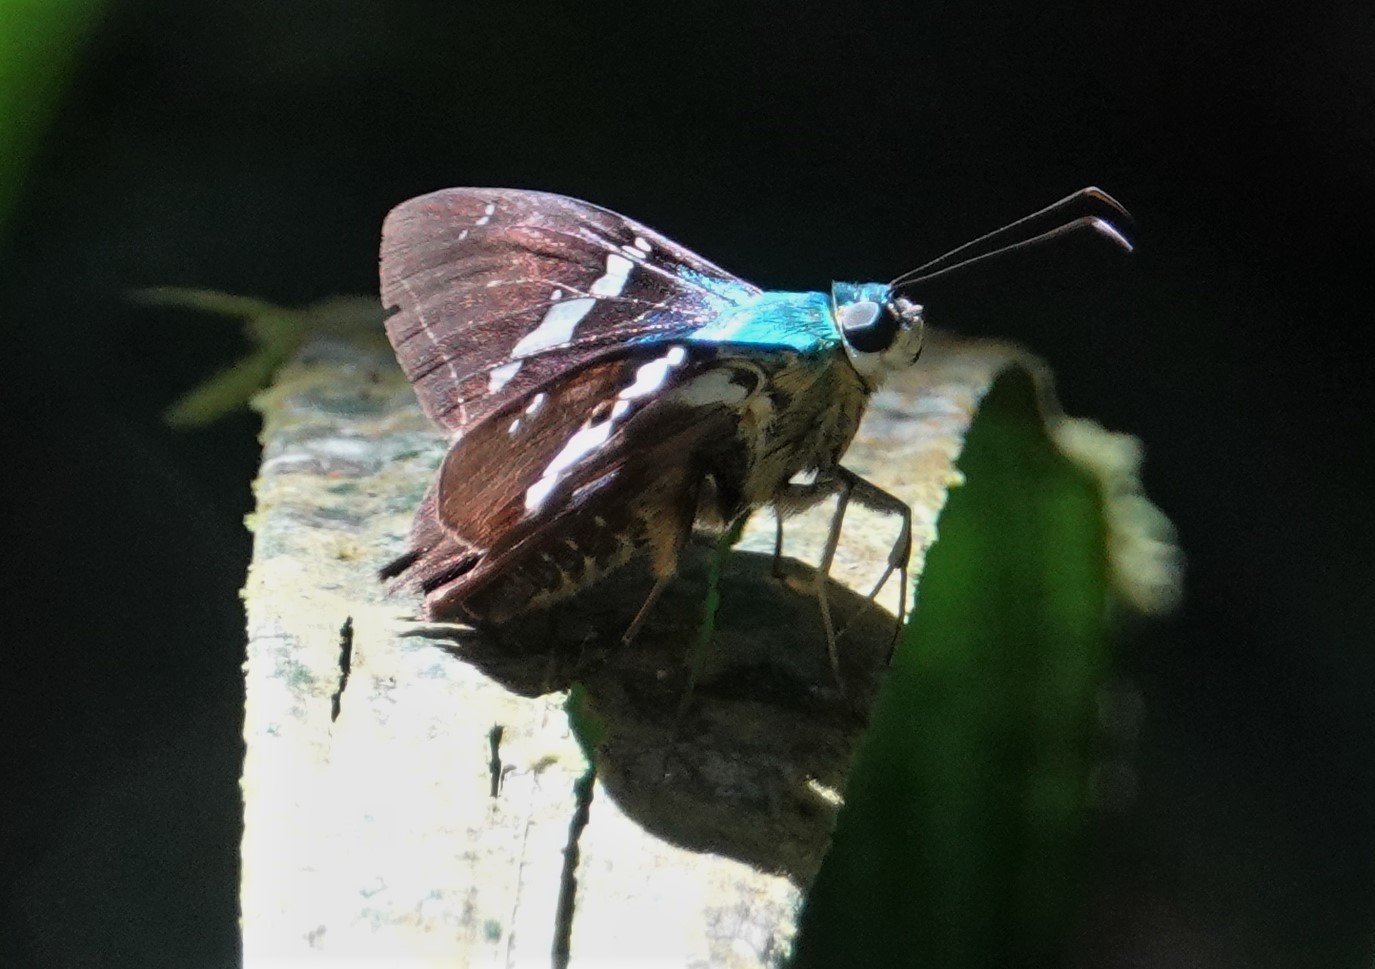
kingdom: Animalia
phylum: Arthropoda
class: Insecta
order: Lepidoptera
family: Hesperiidae
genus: Astraptes
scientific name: Astraptes fulgerator
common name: Two-barred flasher
